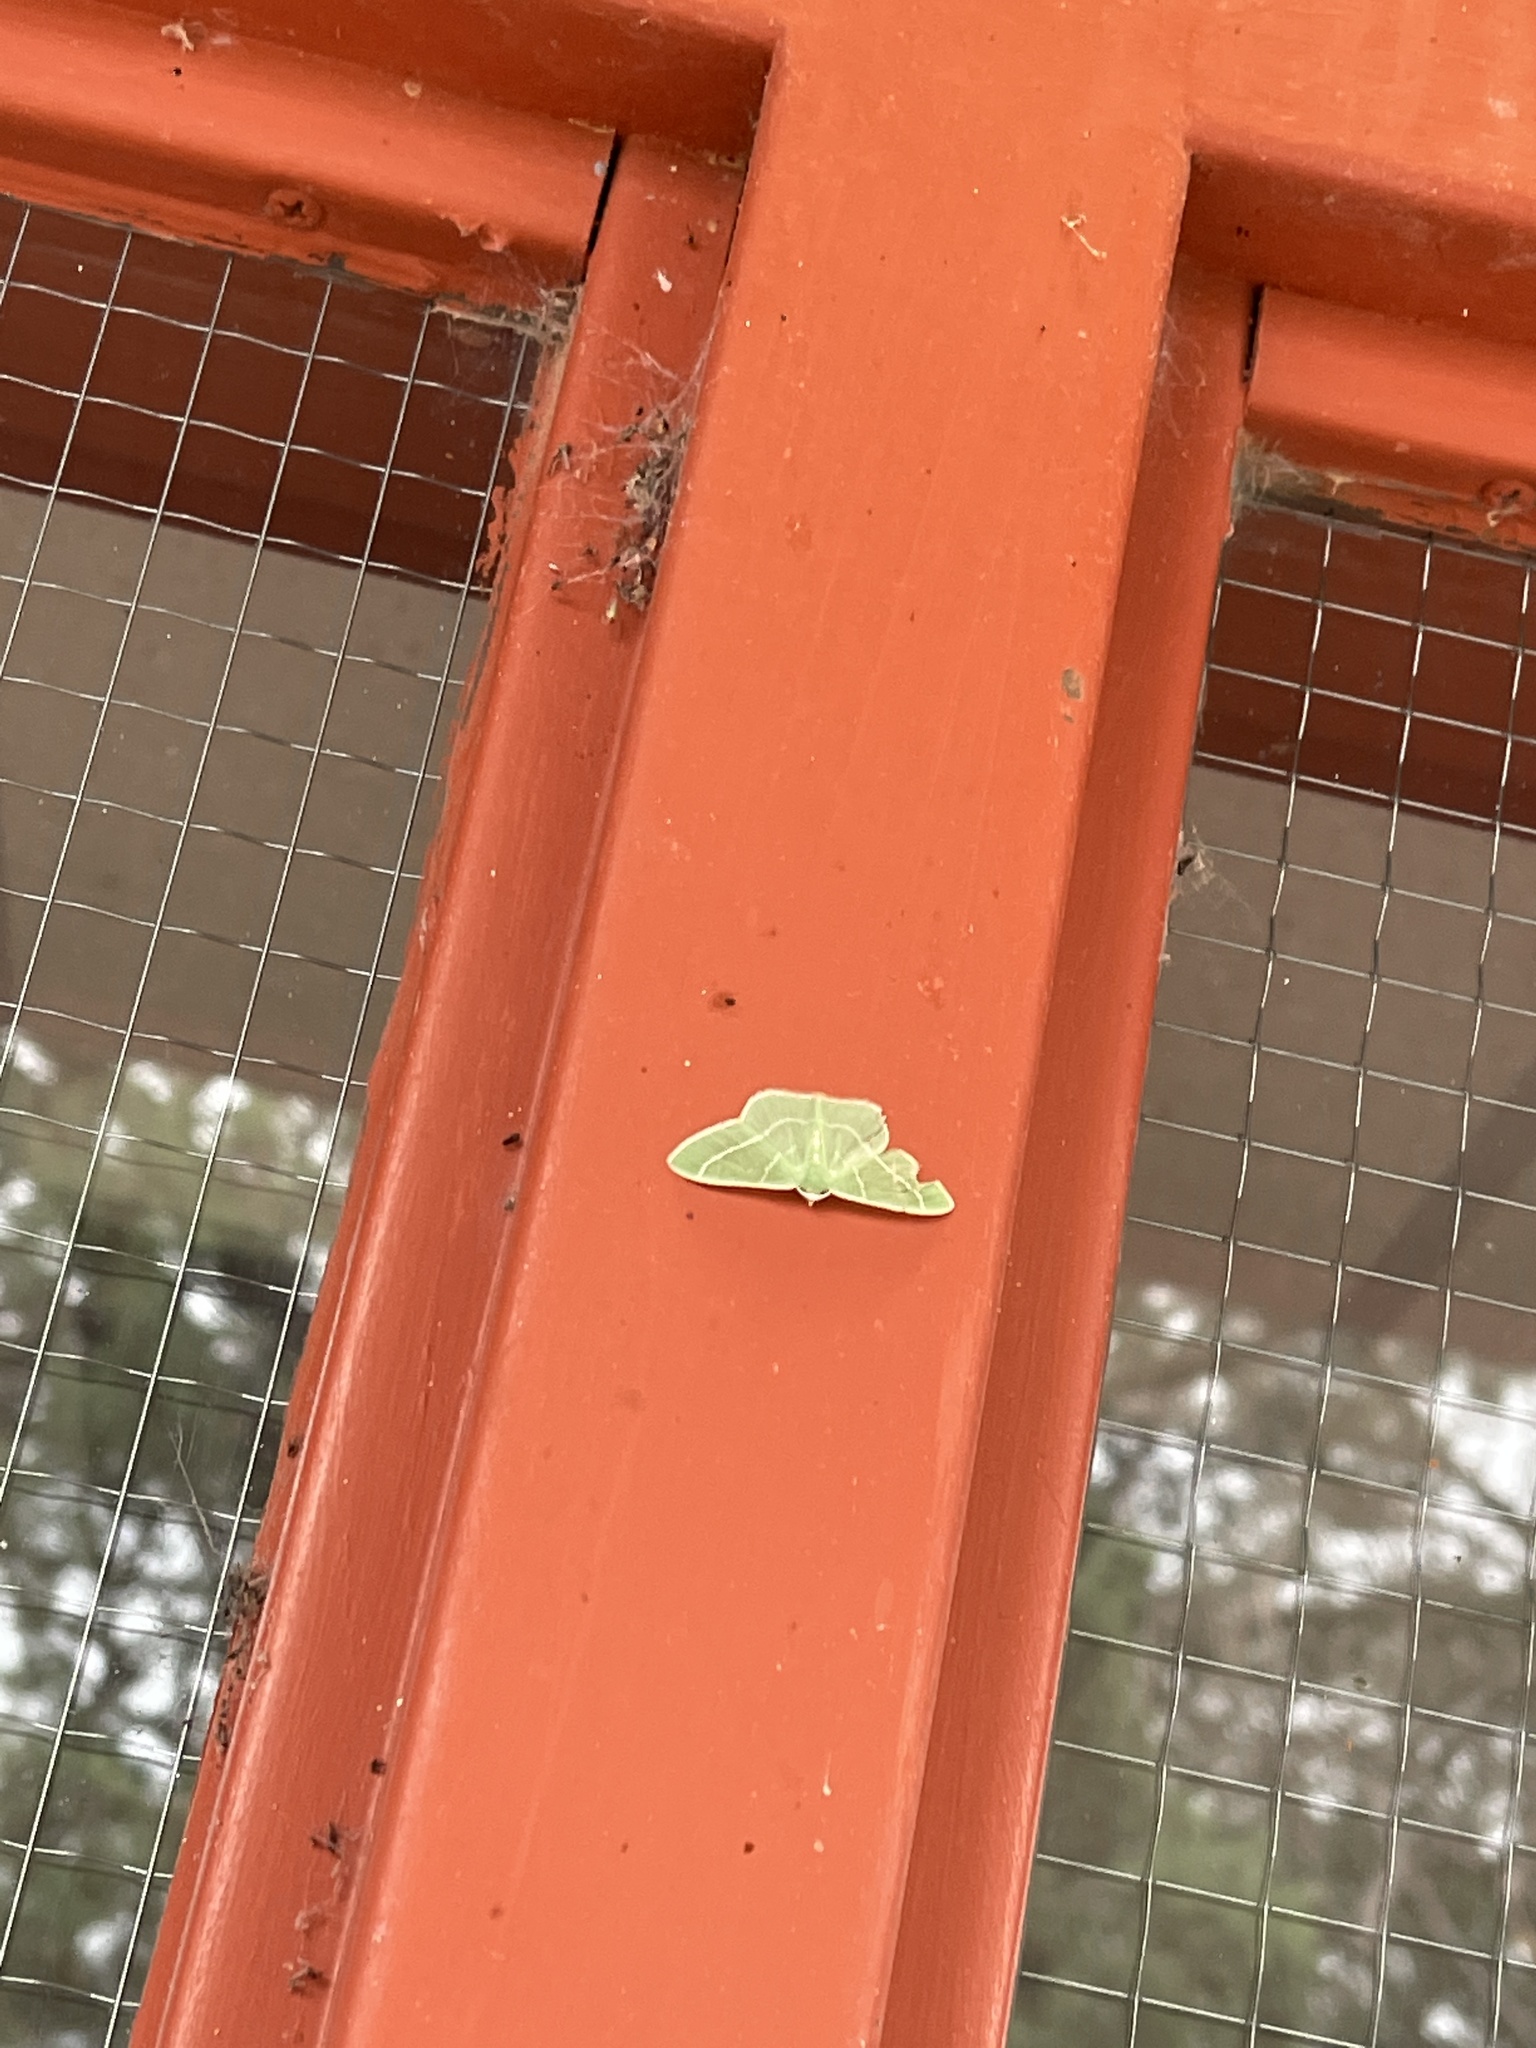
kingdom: Animalia
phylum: Arthropoda
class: Insecta
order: Lepidoptera
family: Geometridae
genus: Nemoria
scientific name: Nemoria obliqua
